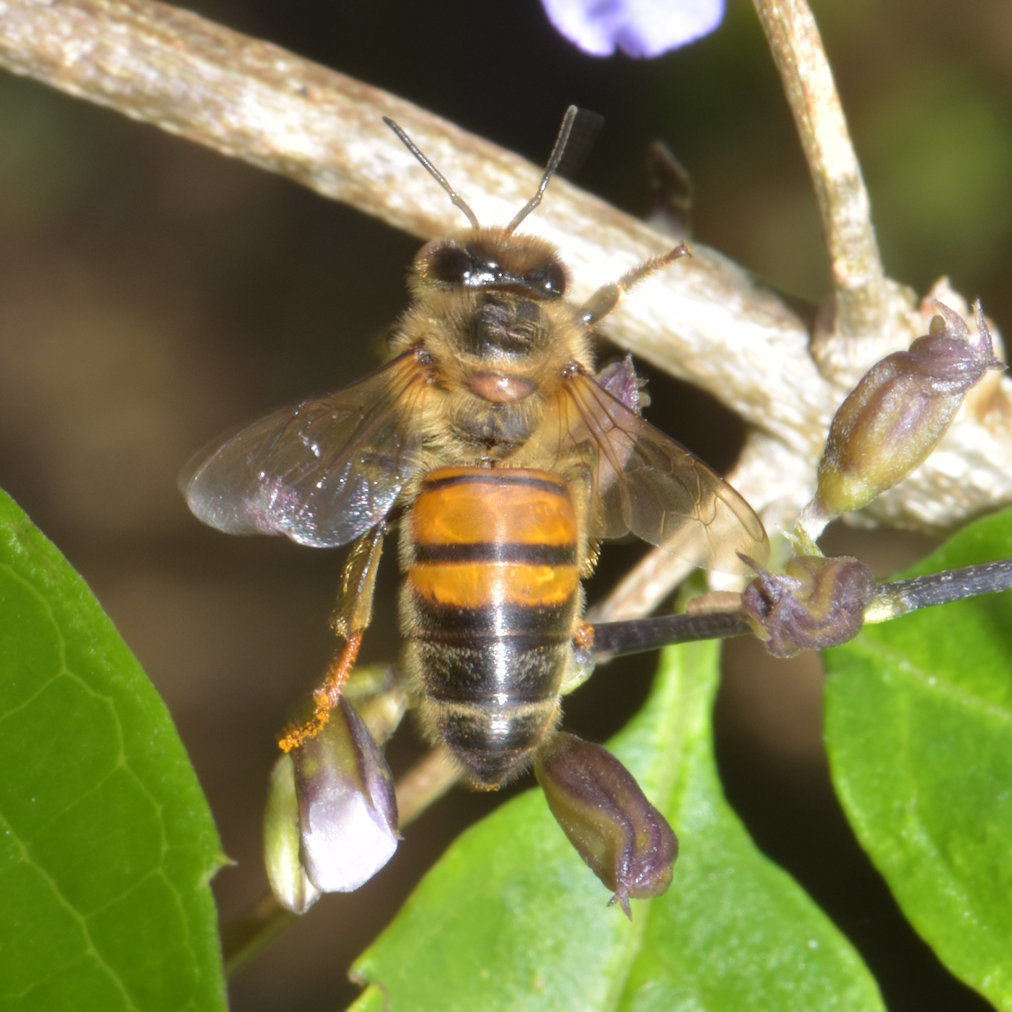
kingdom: Animalia
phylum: Arthropoda
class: Insecta
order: Hymenoptera
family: Apidae
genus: Apis
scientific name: Apis mellifera
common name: Honey bee
